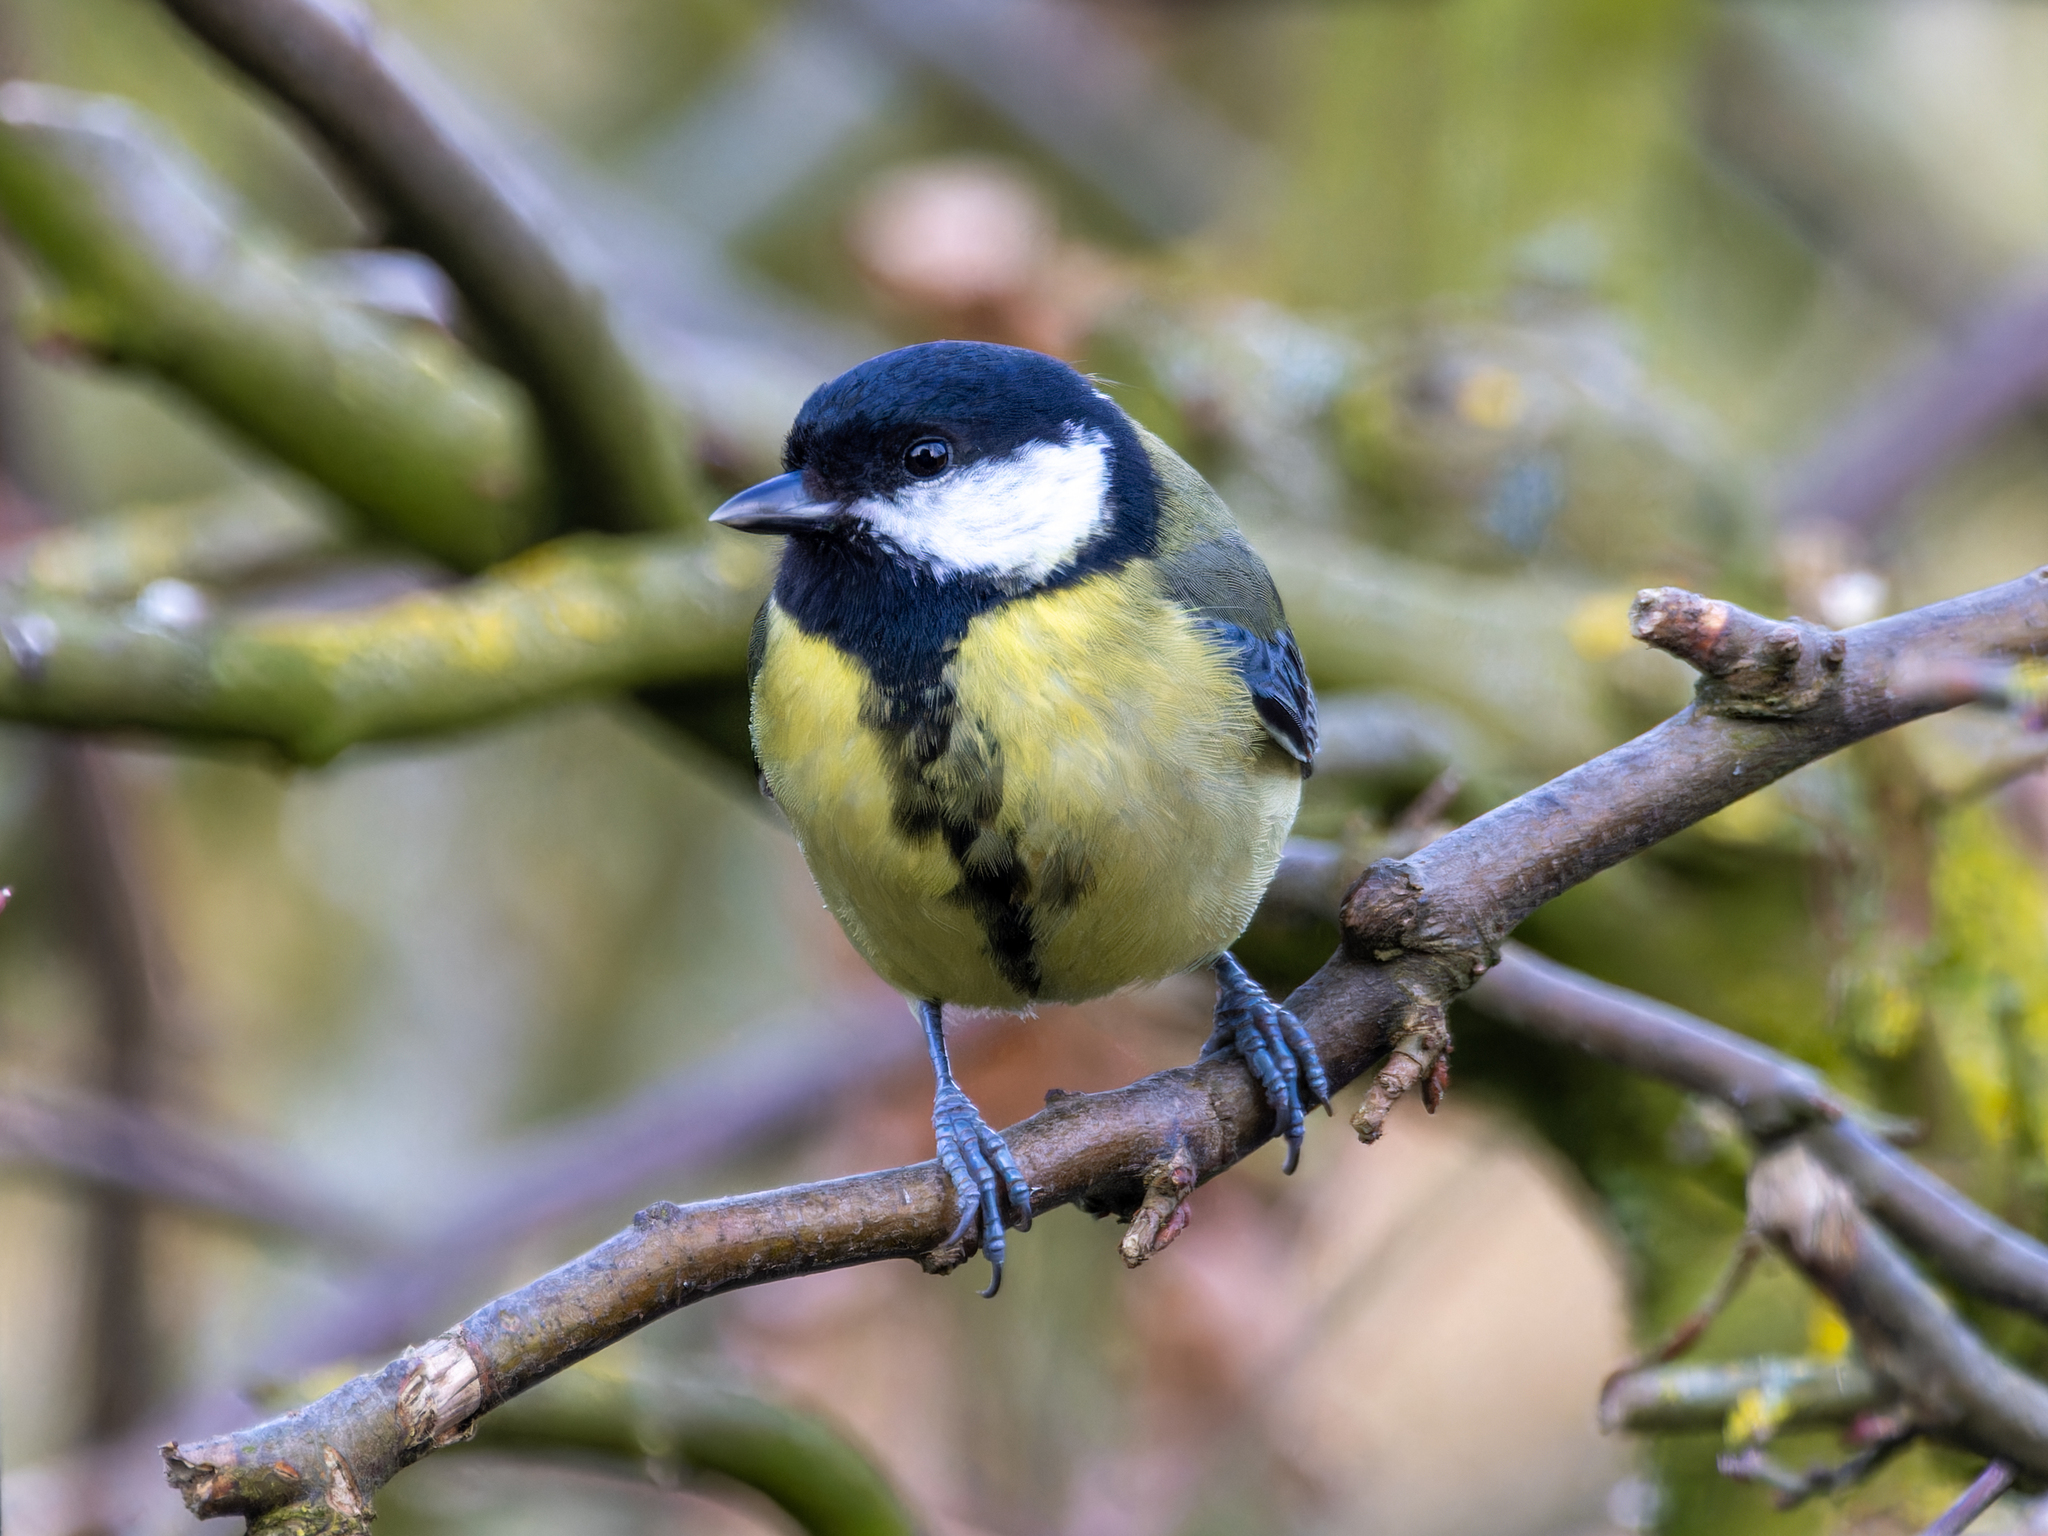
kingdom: Animalia
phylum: Chordata
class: Aves
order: Passeriformes
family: Paridae
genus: Parus
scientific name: Parus major
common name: Great tit
